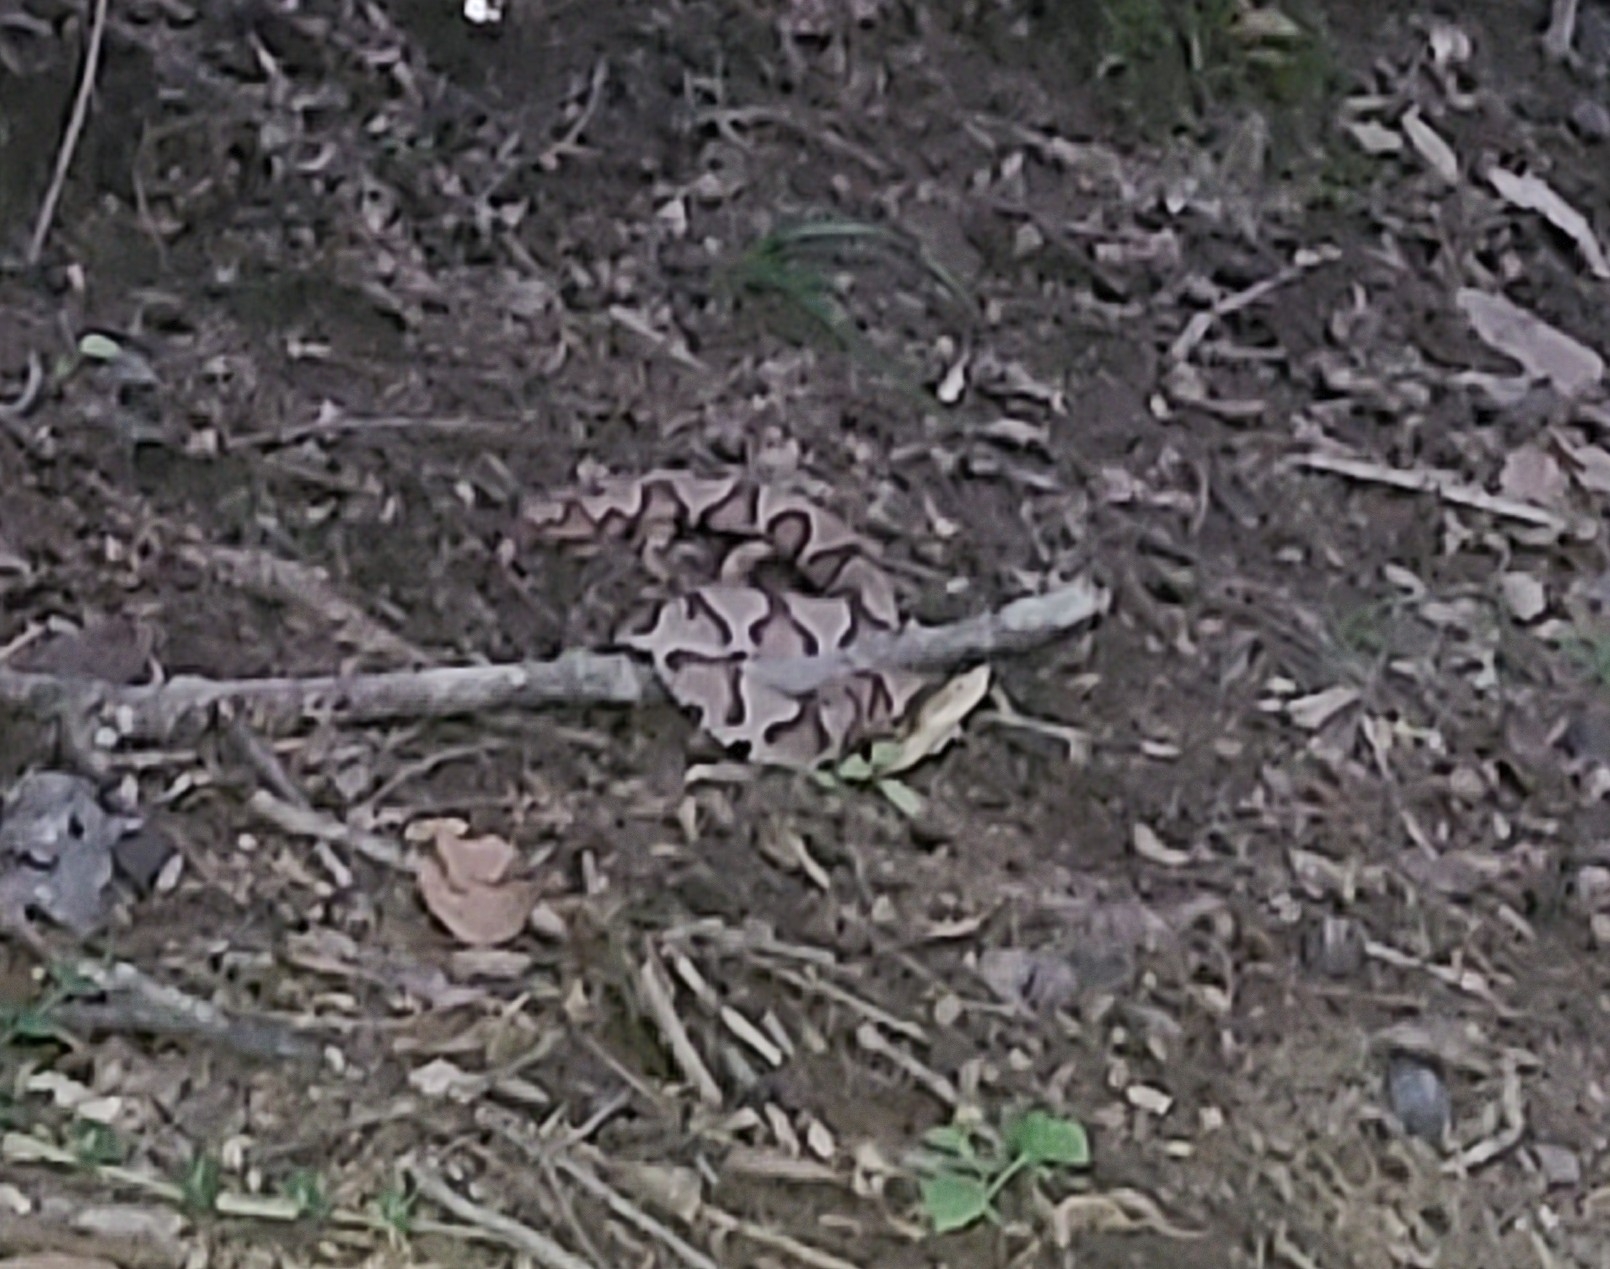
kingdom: Animalia
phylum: Chordata
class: Squamata
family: Viperidae
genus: Agkistrodon
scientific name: Agkistrodon contortrix
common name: Northern copperhead
